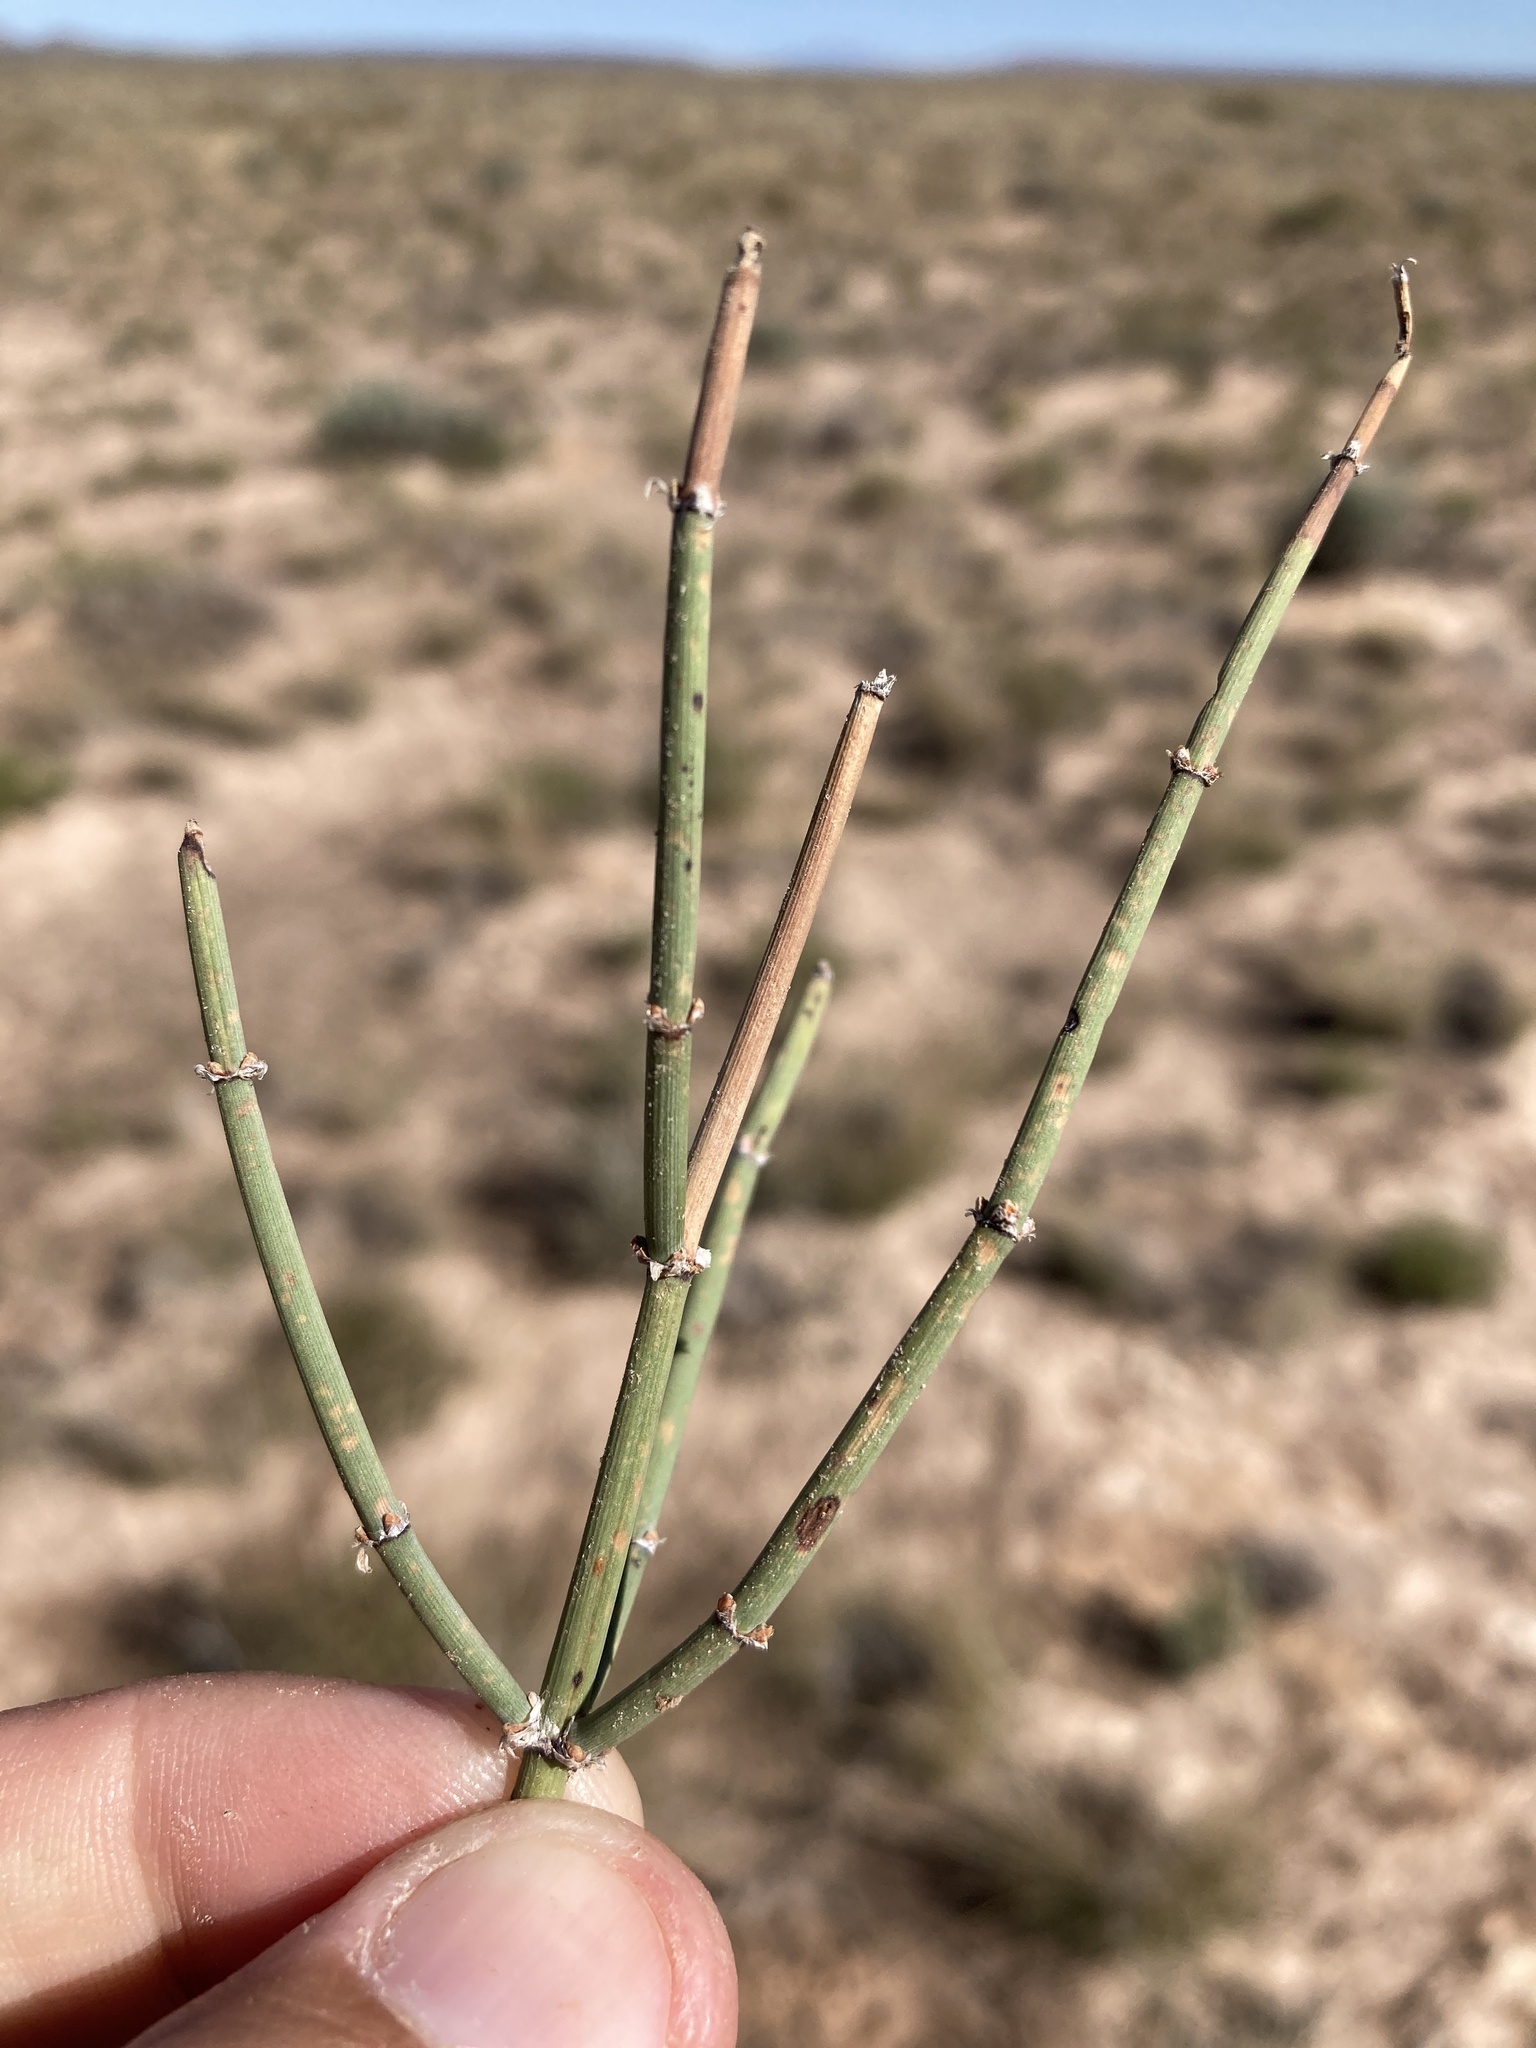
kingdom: Plantae
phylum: Tracheophyta
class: Gnetopsida
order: Ephedrales
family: Ephedraceae
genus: Ephedra
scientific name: Ephedra torreyana
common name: Torrey ephedra
